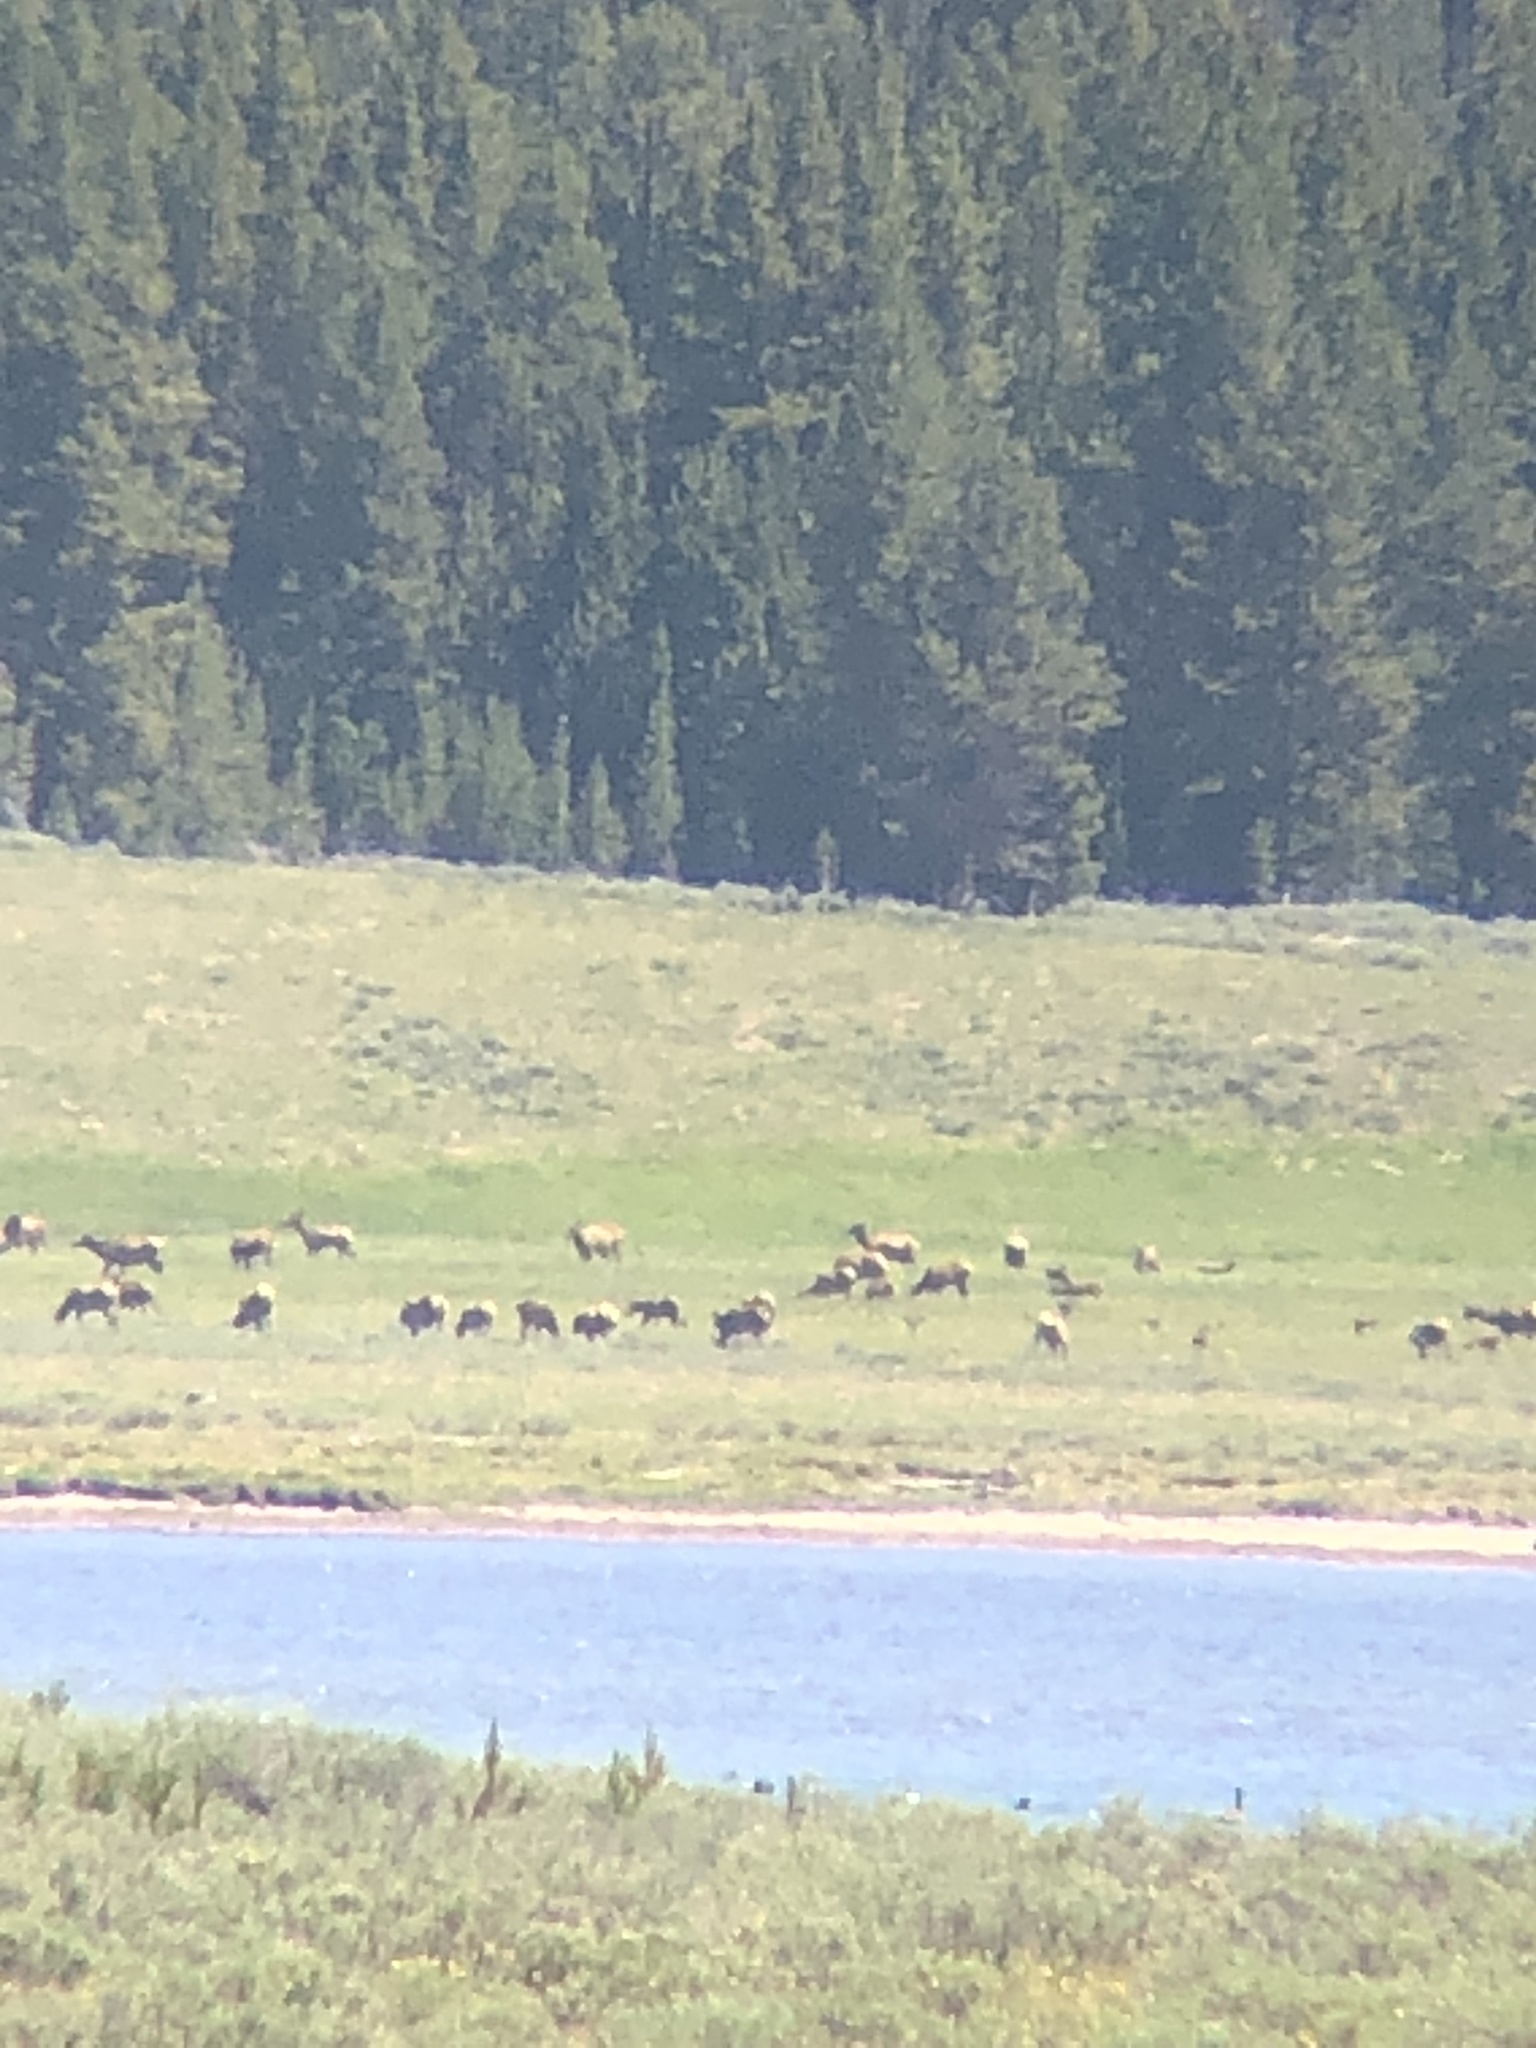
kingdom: Animalia
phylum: Chordata
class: Mammalia
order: Artiodactyla
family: Cervidae
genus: Cervus
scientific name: Cervus elaphus
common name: Red deer
